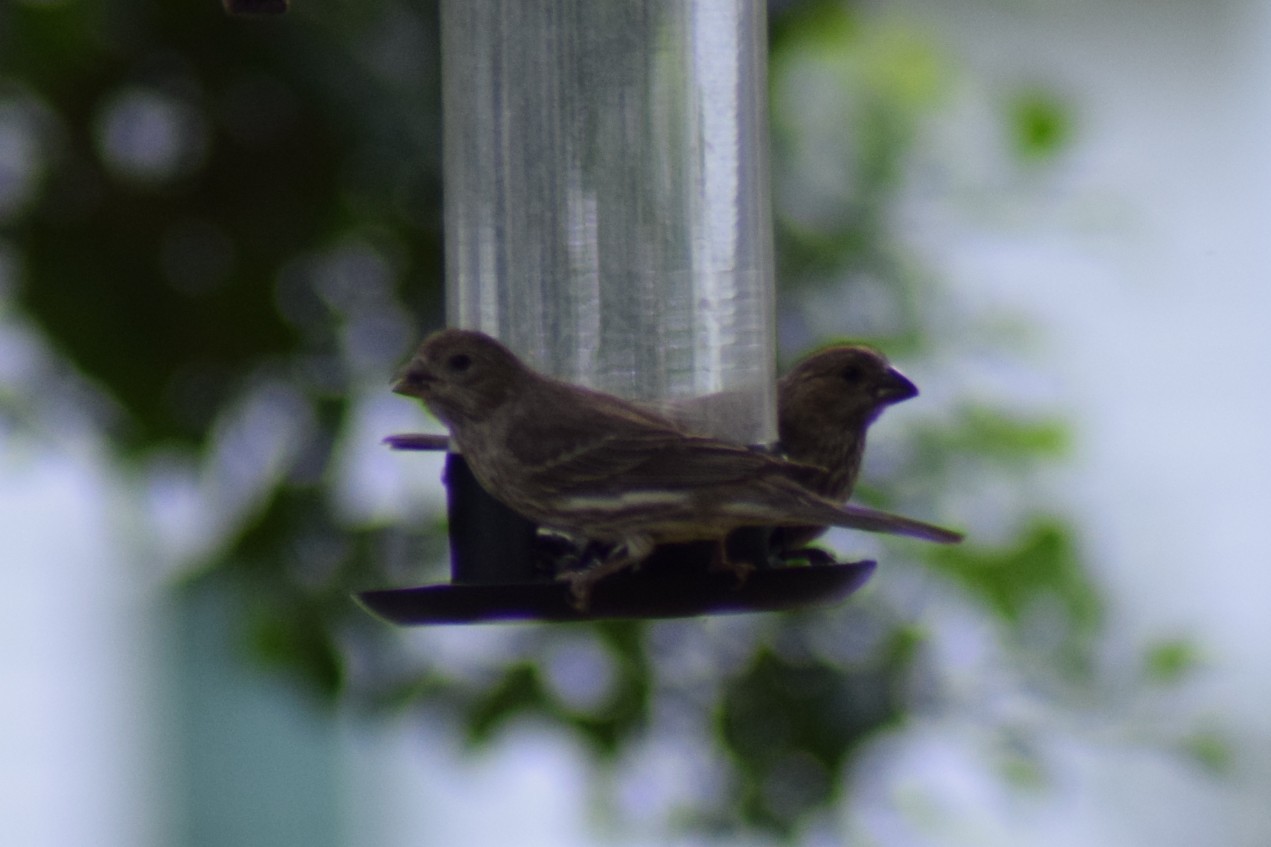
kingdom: Animalia
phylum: Chordata
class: Aves
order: Passeriformes
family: Fringillidae
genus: Haemorhous
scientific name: Haemorhous mexicanus
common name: House finch
